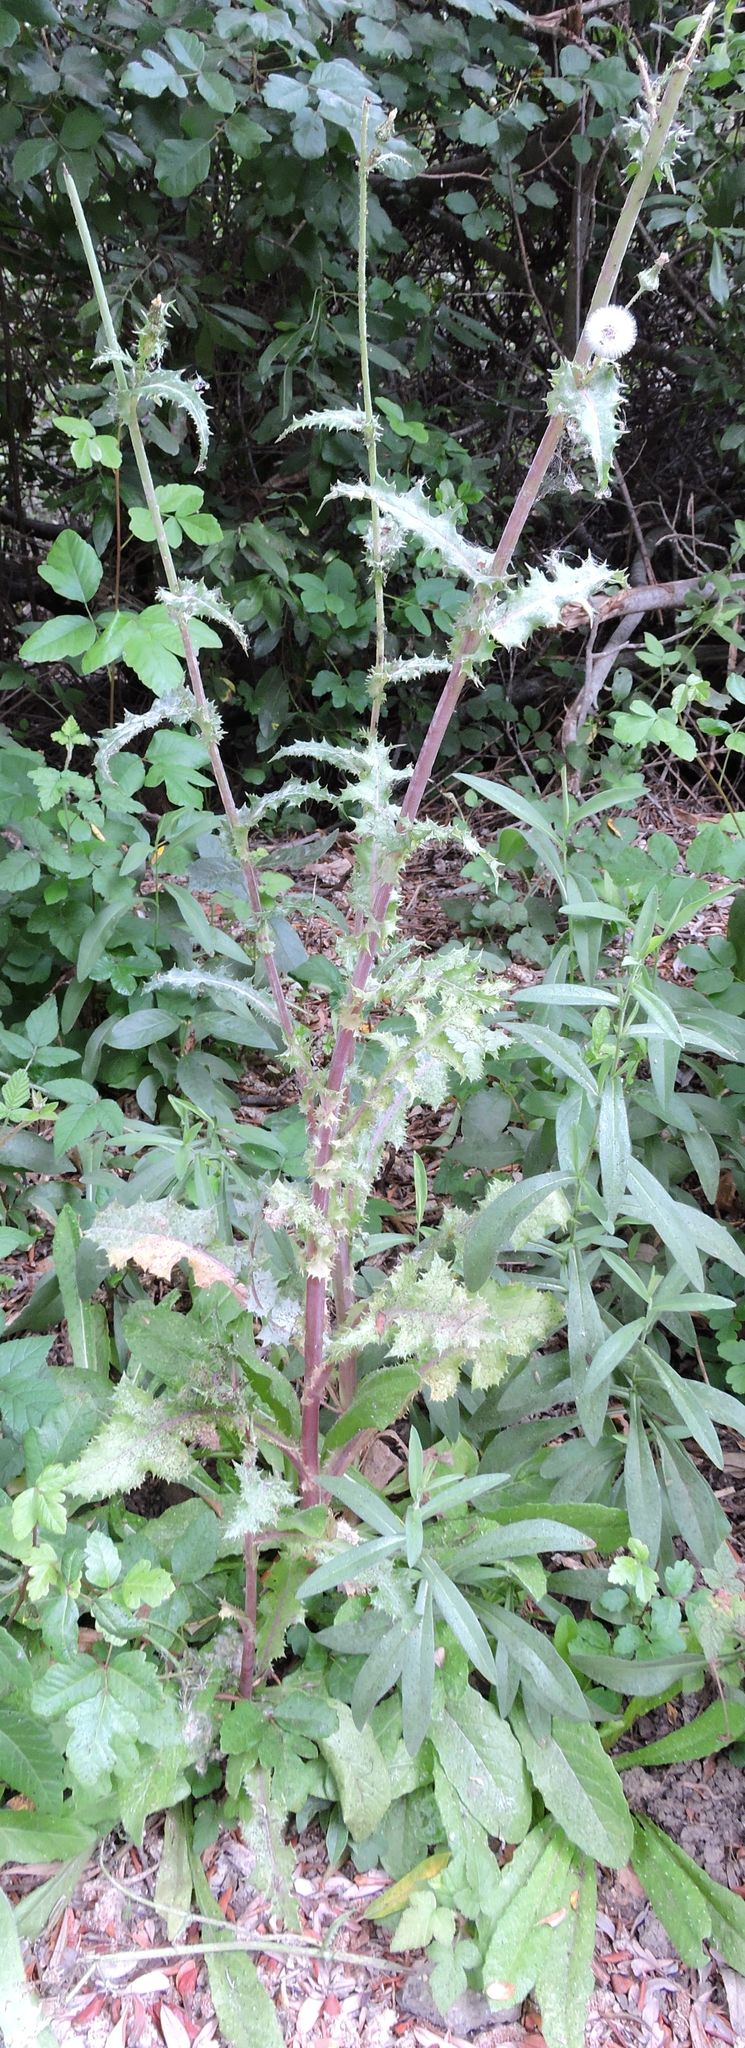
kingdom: Plantae
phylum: Tracheophyta
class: Magnoliopsida
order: Asterales
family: Asteraceae
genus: Sonchus
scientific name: Sonchus asper
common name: Prickly sow-thistle
